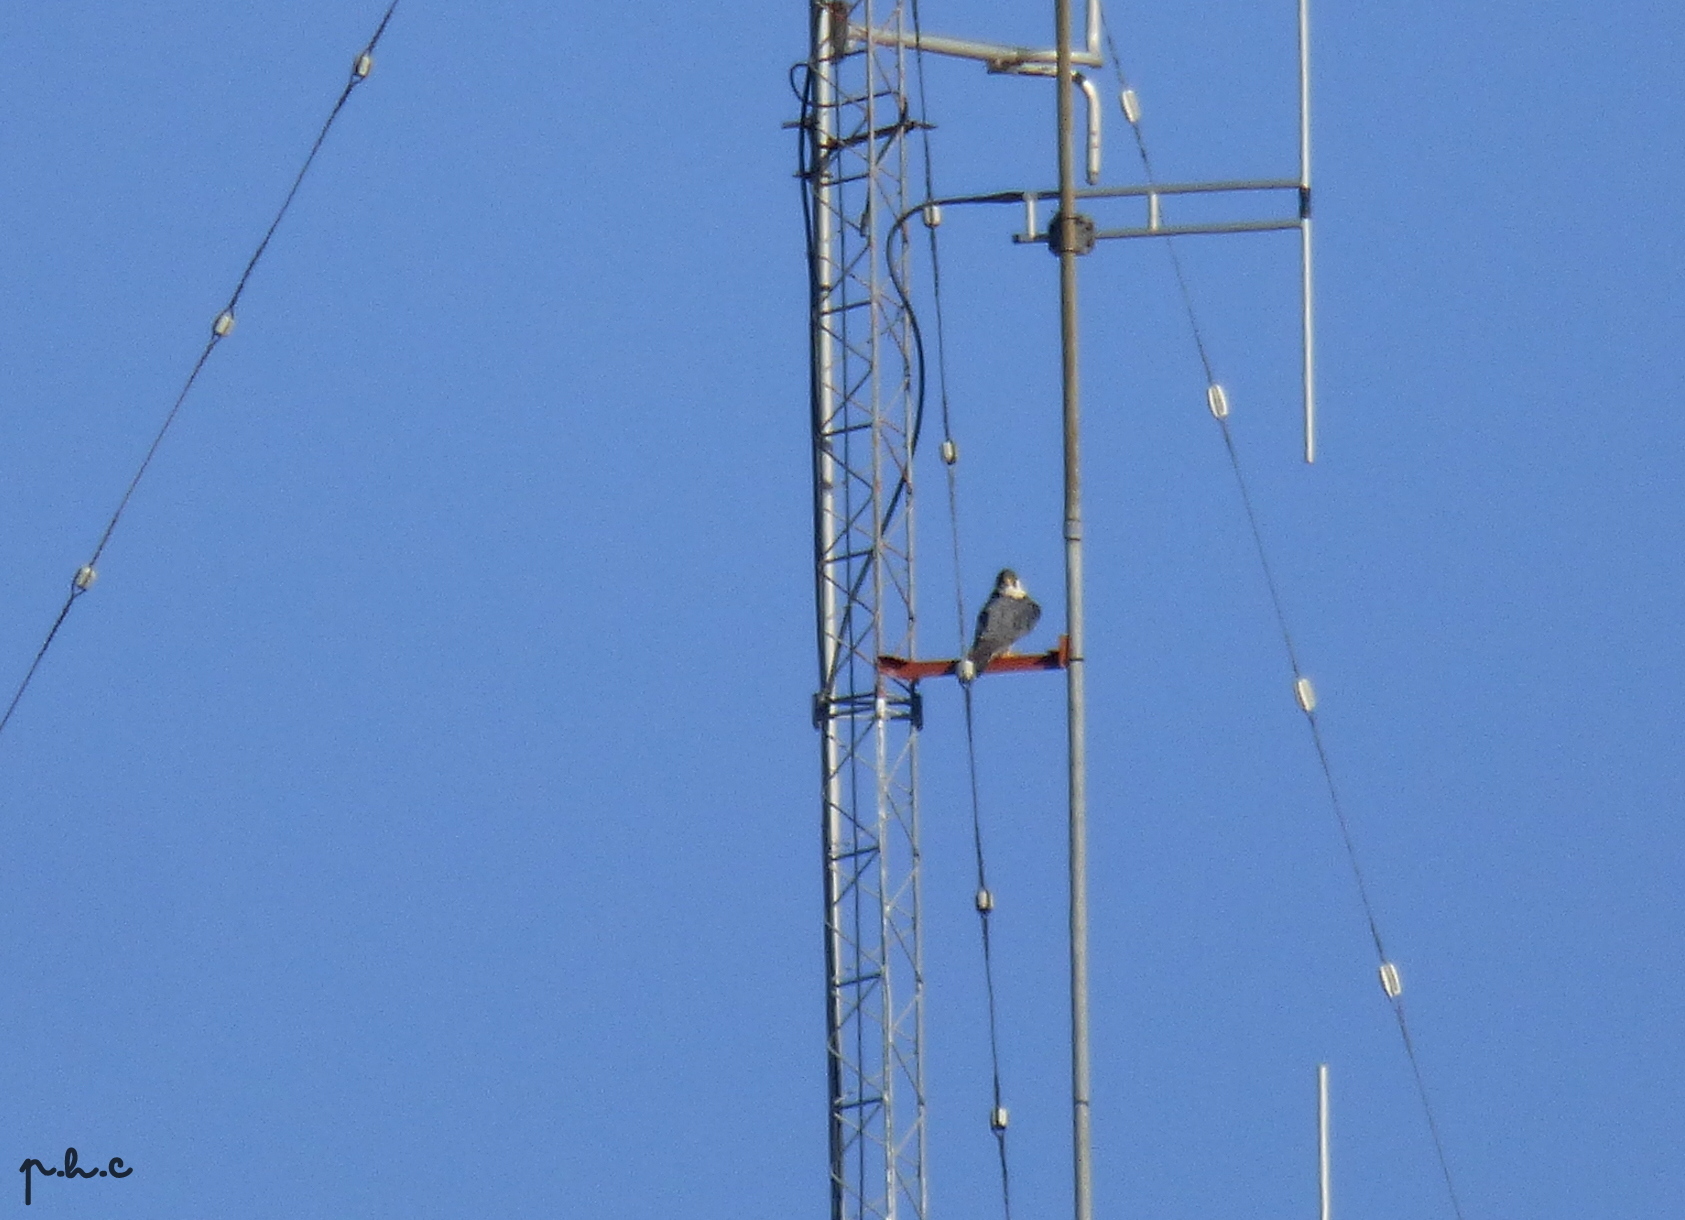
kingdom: Animalia
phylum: Chordata
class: Aves
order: Falconiformes
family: Falconidae
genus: Falco
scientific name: Falco peregrinus
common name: Peregrine falcon
